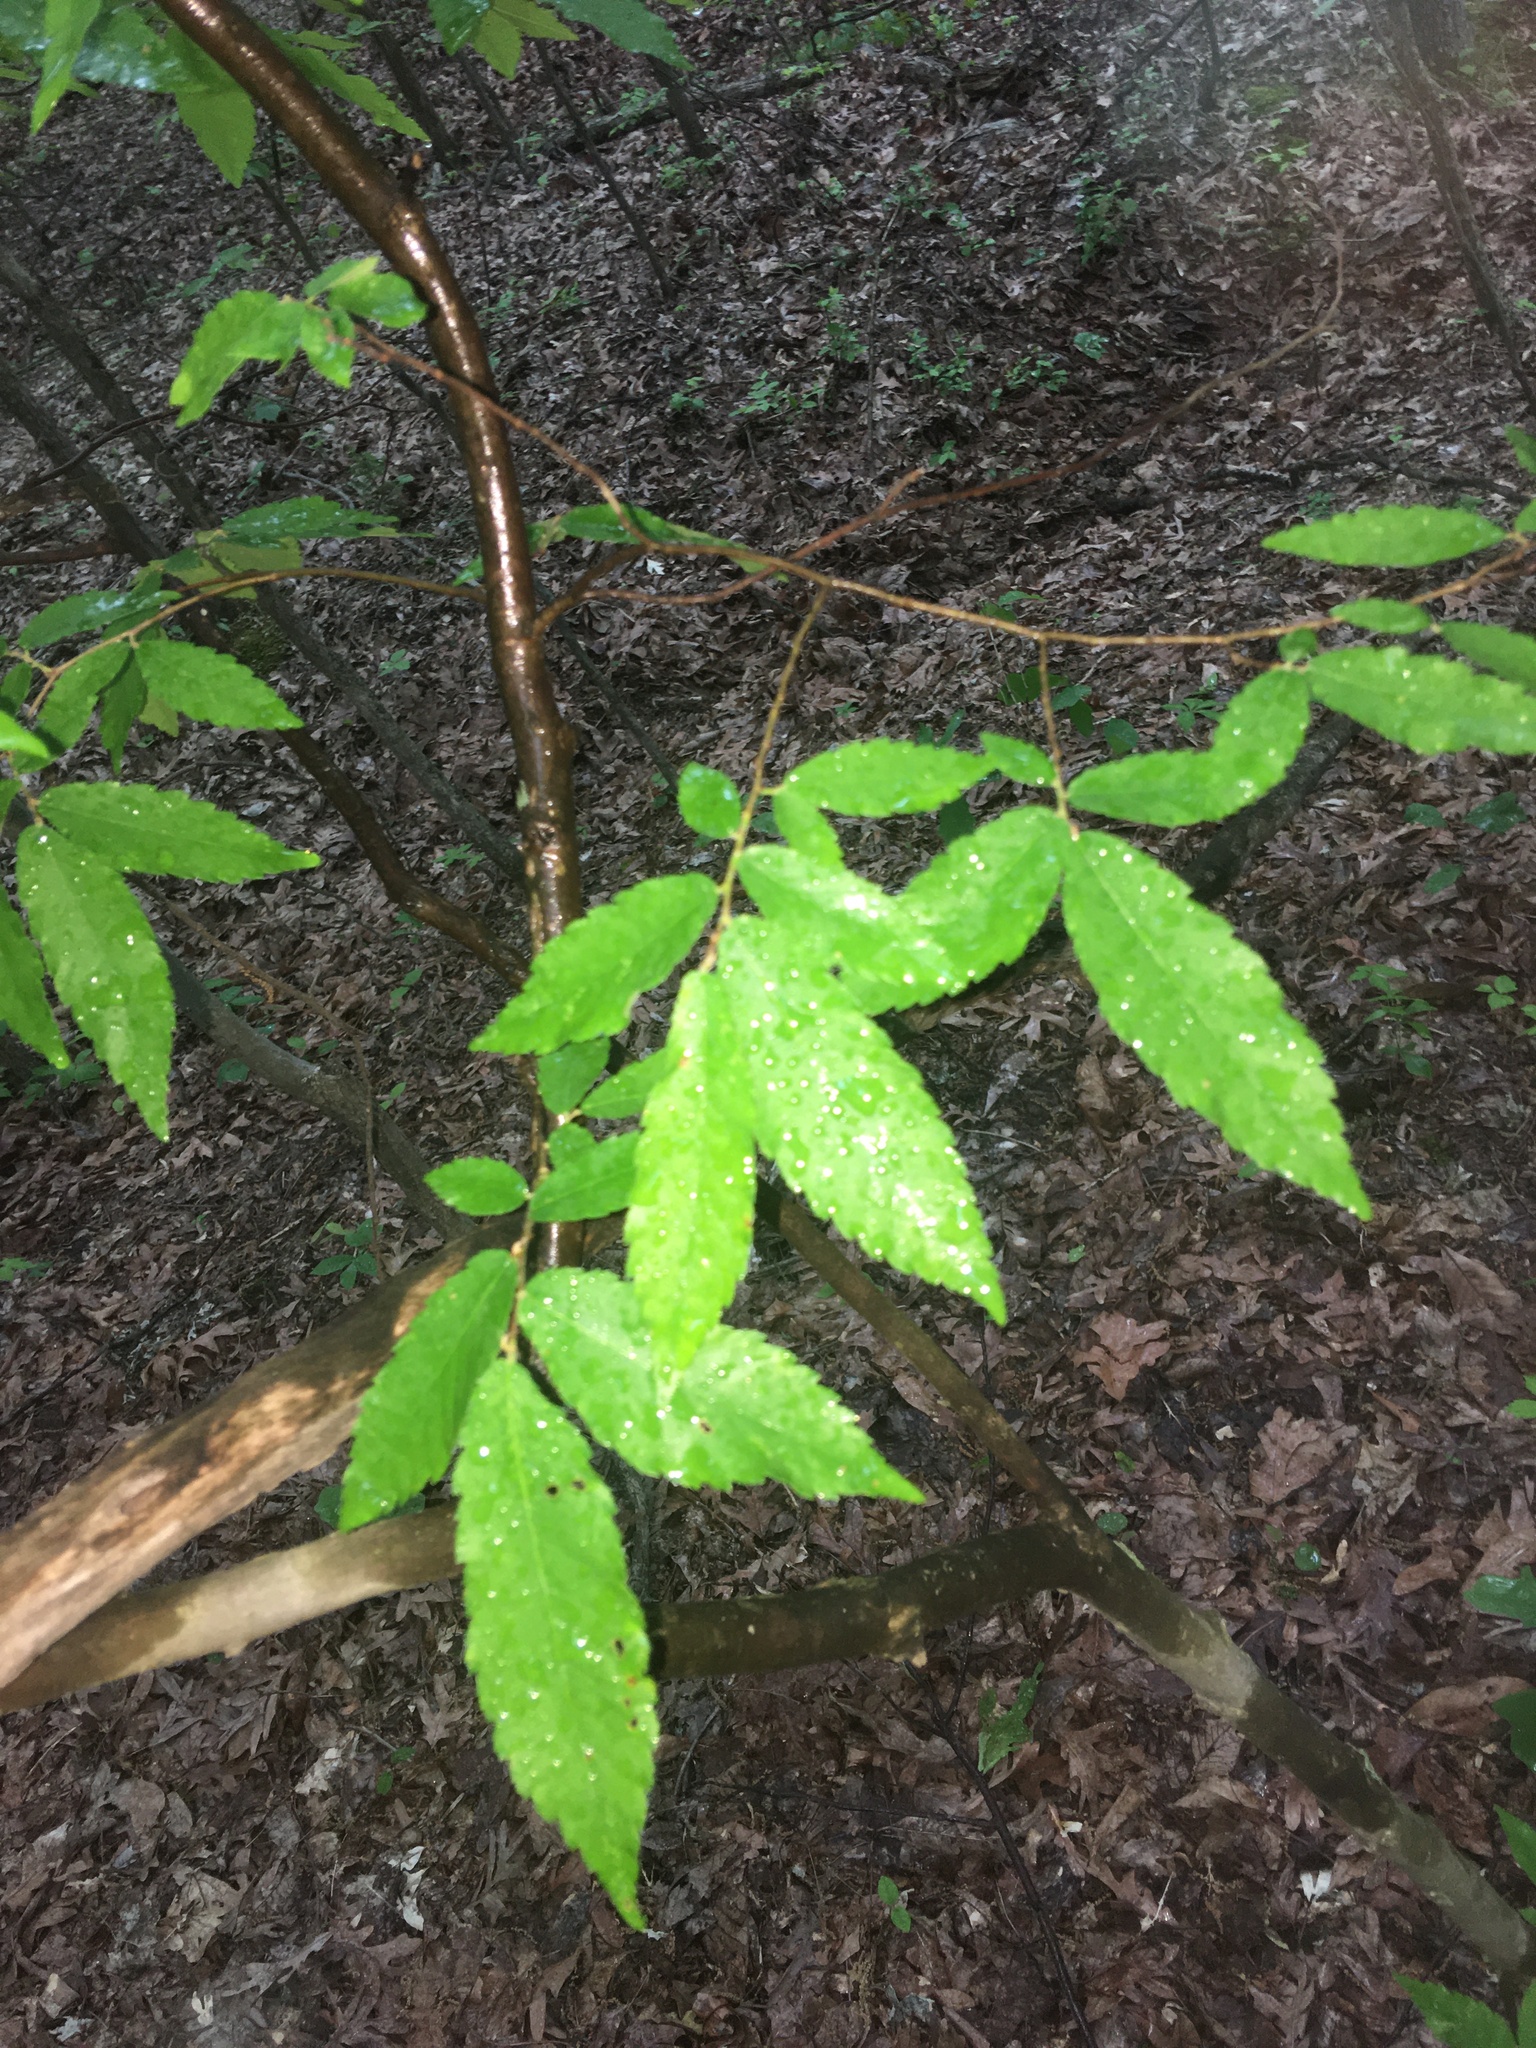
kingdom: Plantae
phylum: Tracheophyta
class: Magnoliopsida
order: Rosales
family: Ulmaceae
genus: Ulmus
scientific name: Ulmus alata
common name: Winged elm
